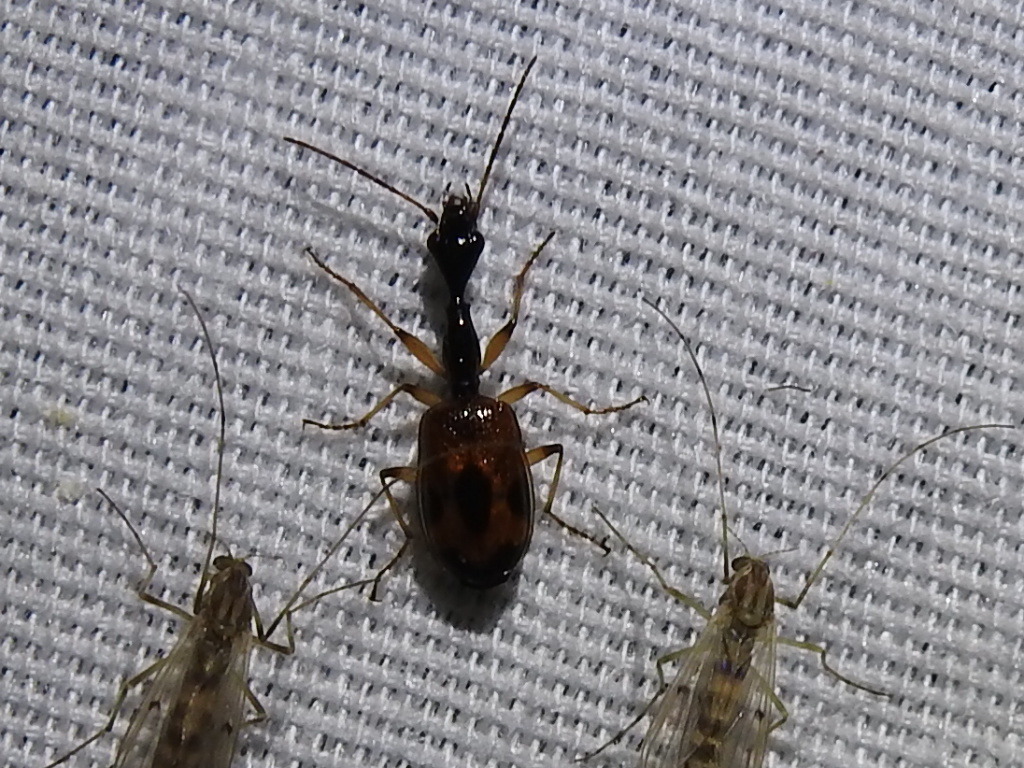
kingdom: Animalia
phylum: Arthropoda
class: Insecta
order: Coleoptera
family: Carabidae
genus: Colliuris
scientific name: Colliuris pensylvanica
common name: Long-necked ground beetle
